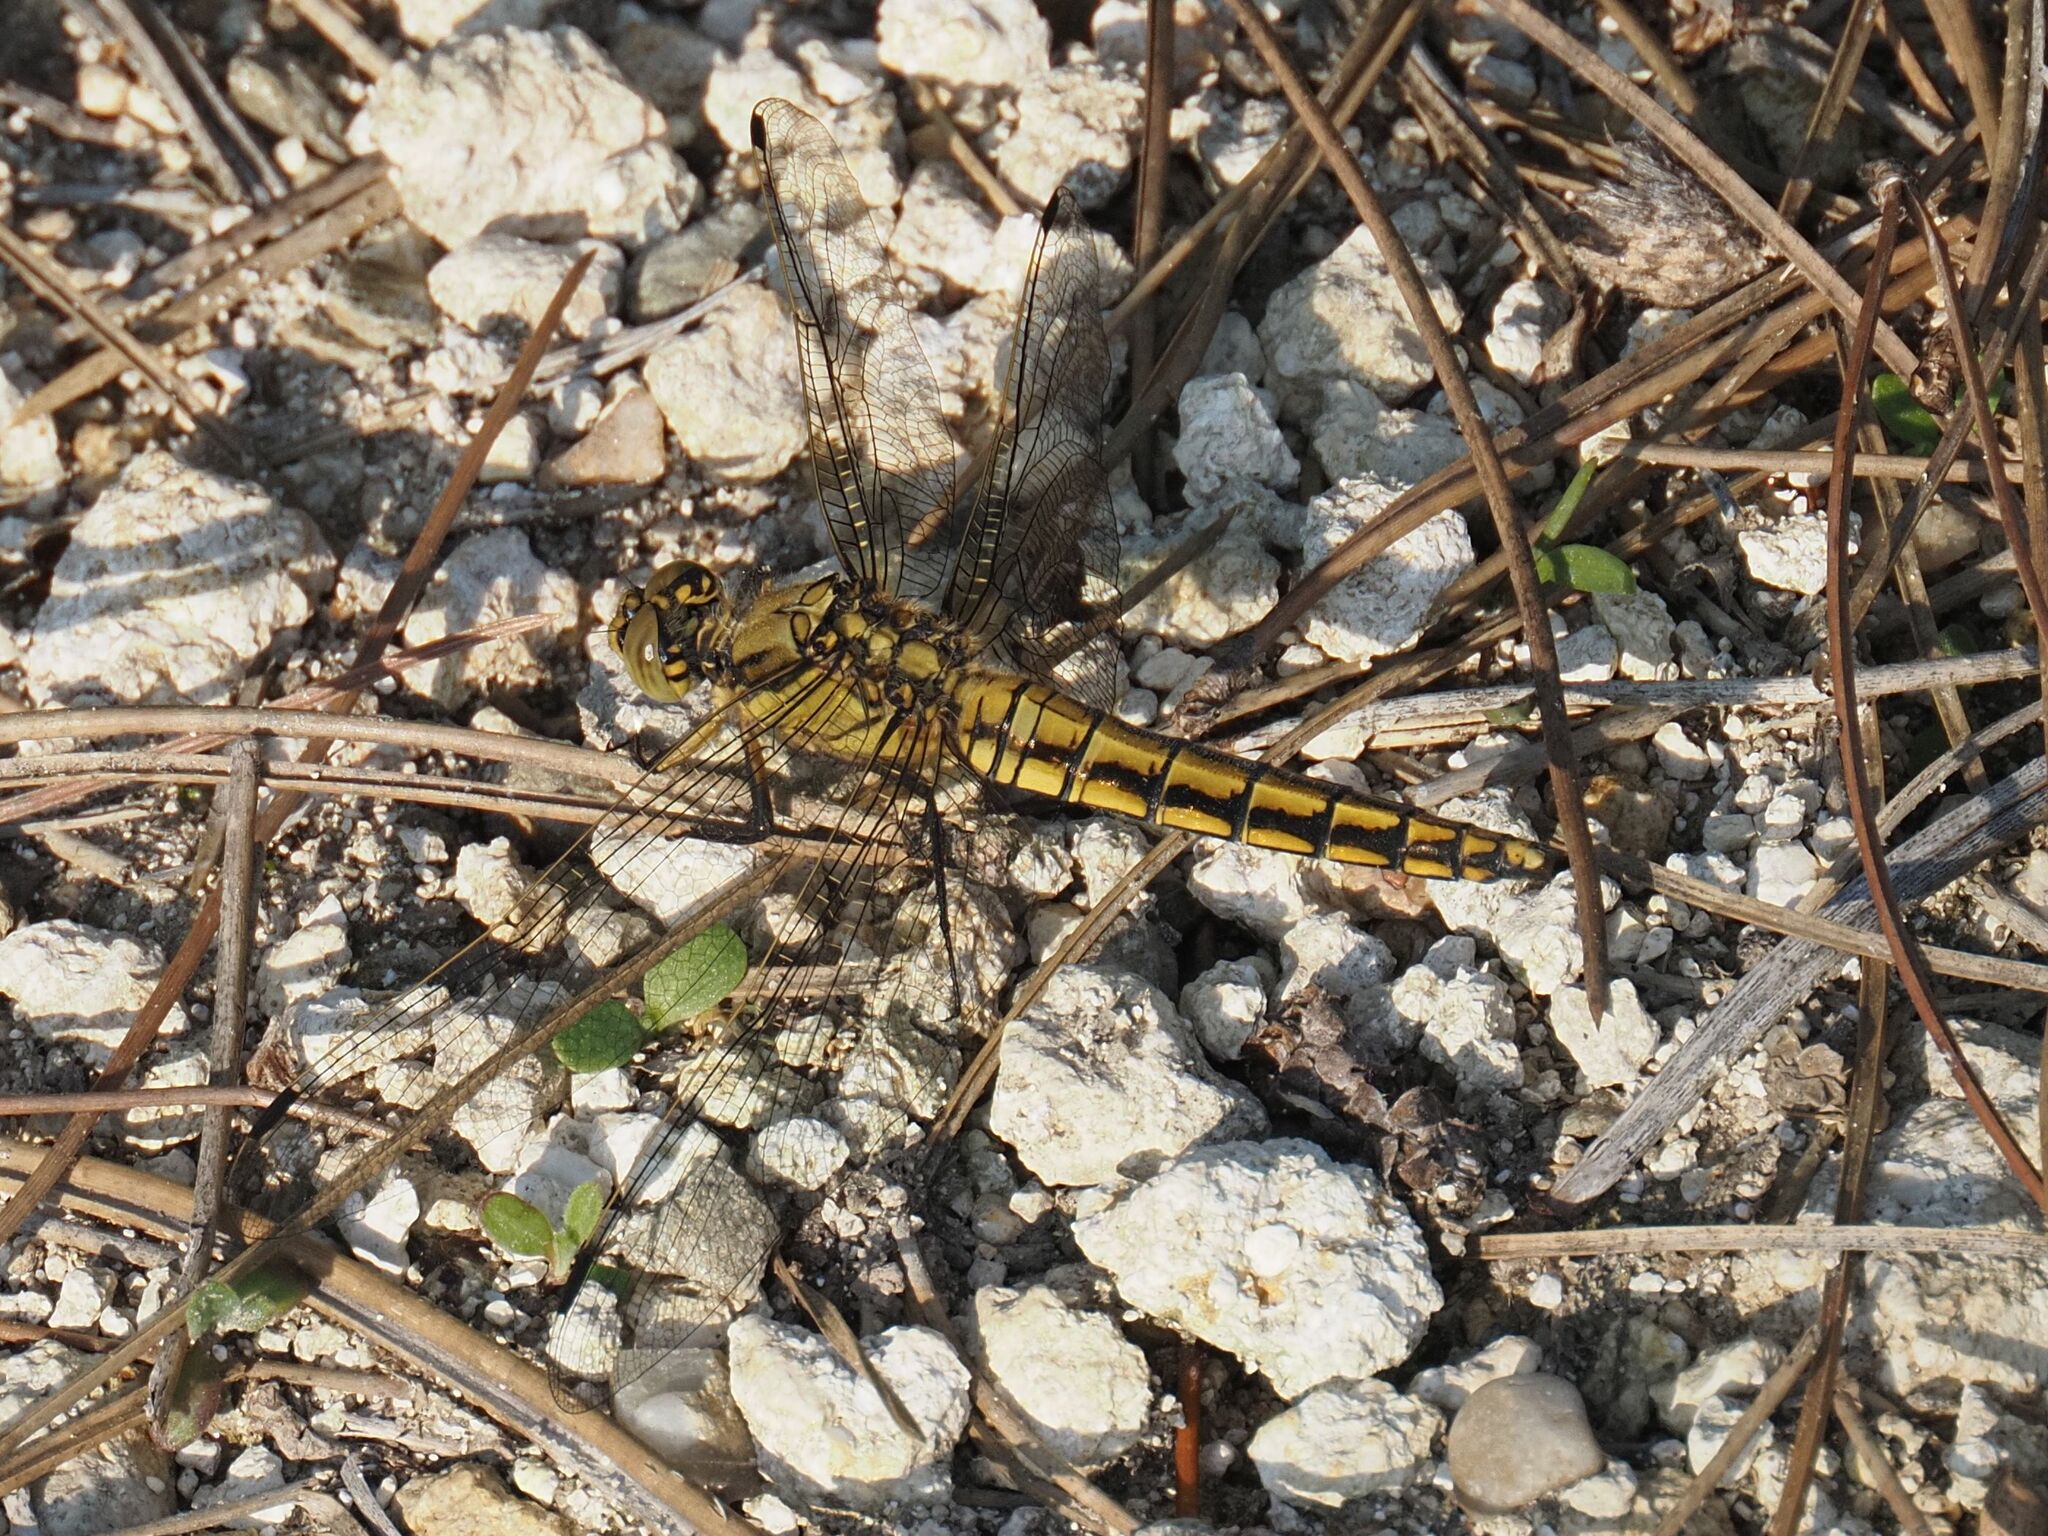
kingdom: Animalia
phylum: Arthropoda
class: Insecta
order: Odonata
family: Libellulidae
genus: Orthetrum
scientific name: Orthetrum cancellatum
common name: Black-tailed skimmer
